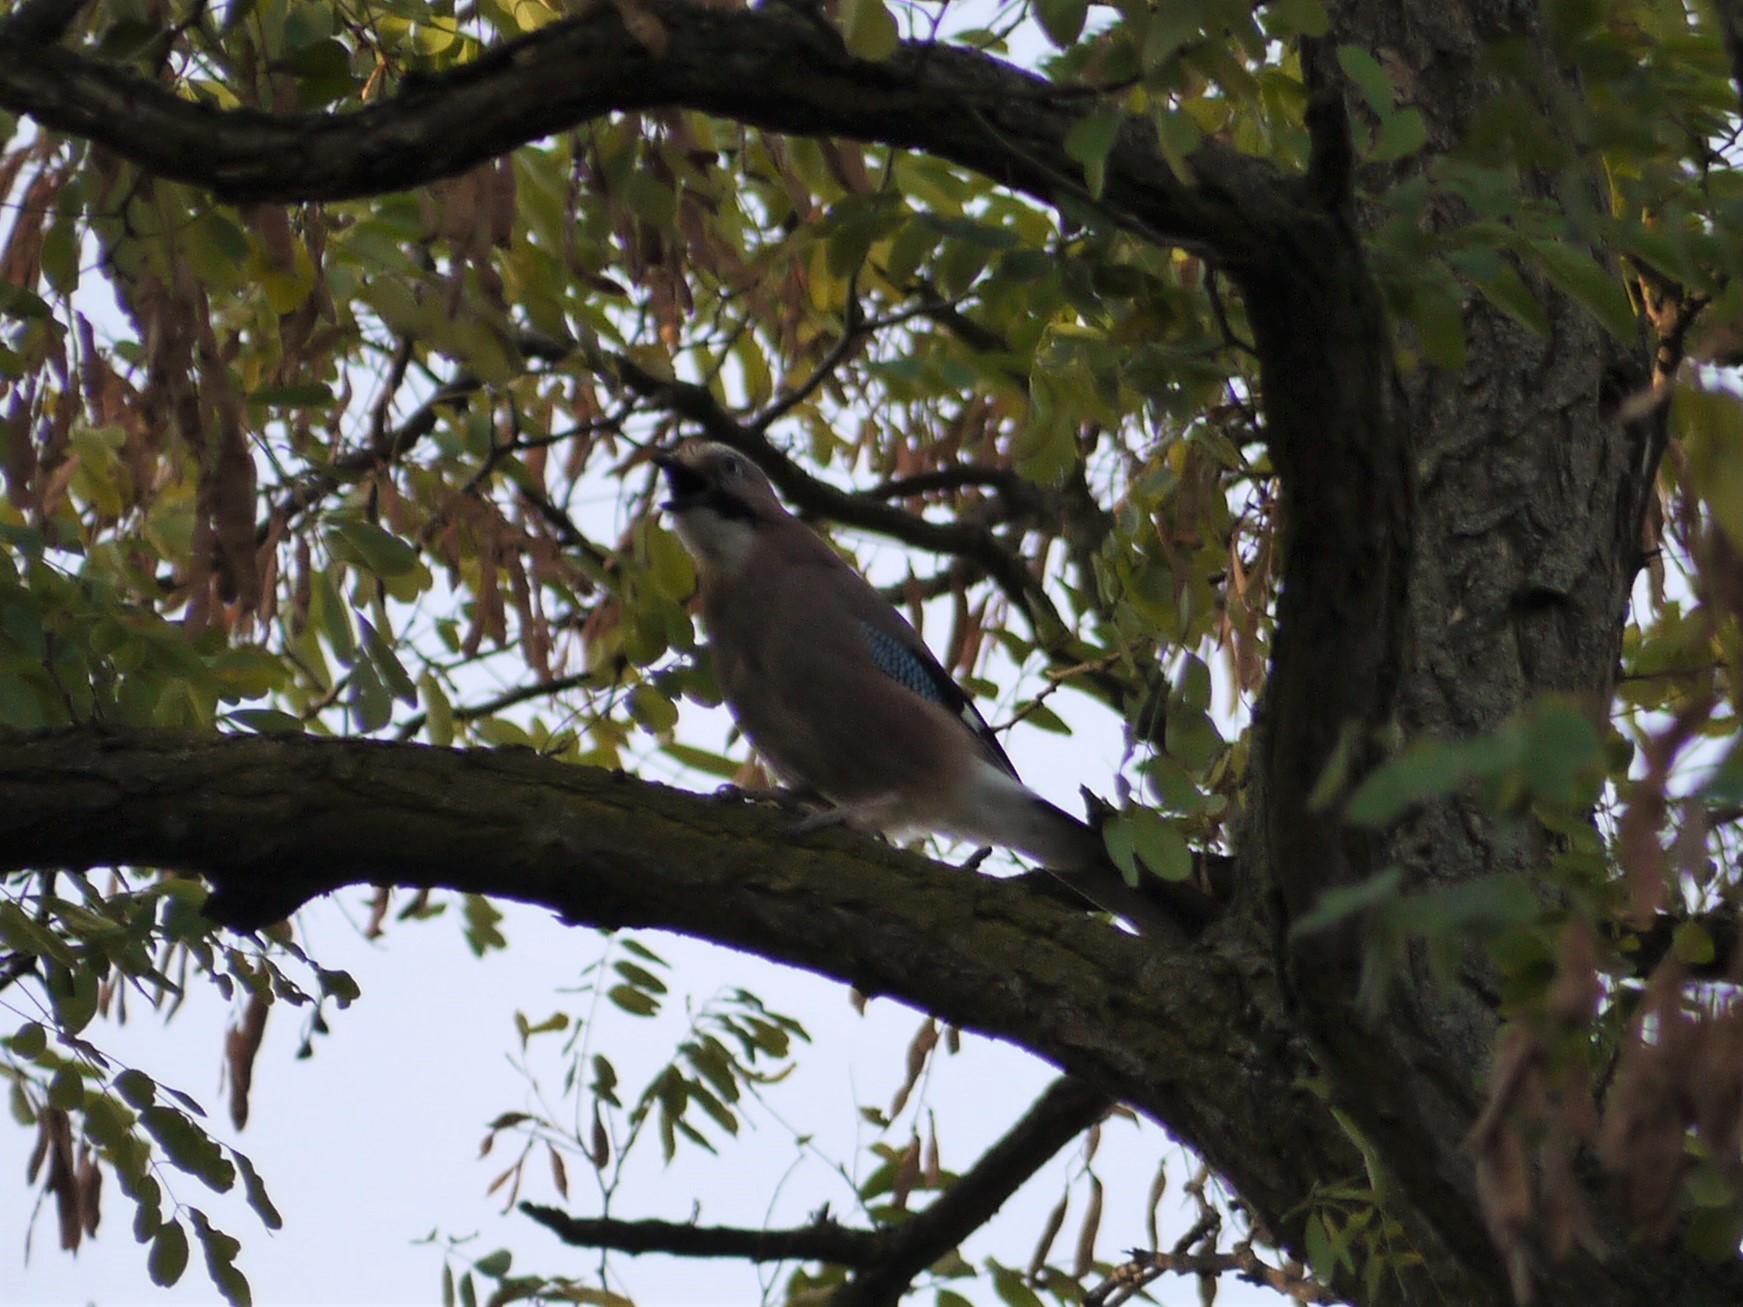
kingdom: Animalia
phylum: Chordata
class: Aves
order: Passeriformes
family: Corvidae
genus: Garrulus
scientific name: Garrulus glandarius
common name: Eurasian jay
